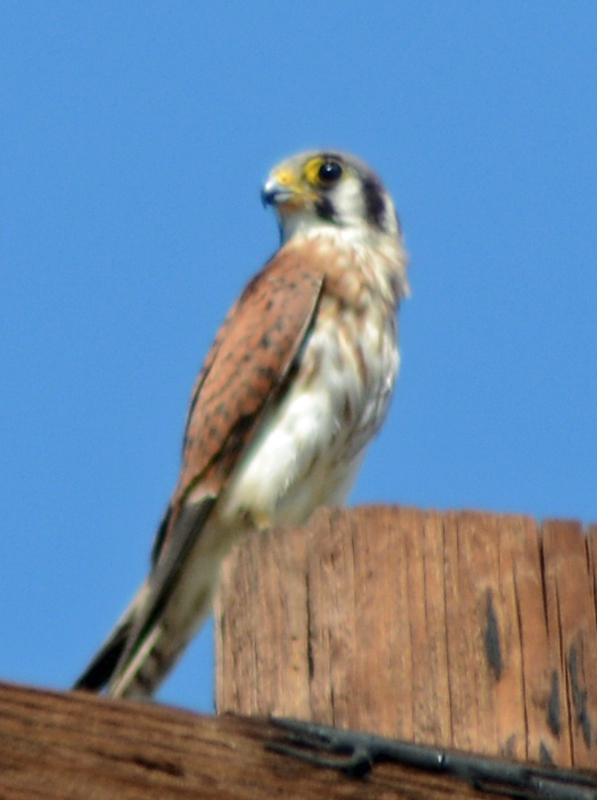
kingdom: Animalia
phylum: Chordata
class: Aves
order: Falconiformes
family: Falconidae
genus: Falco
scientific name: Falco sparverius
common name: American kestrel
